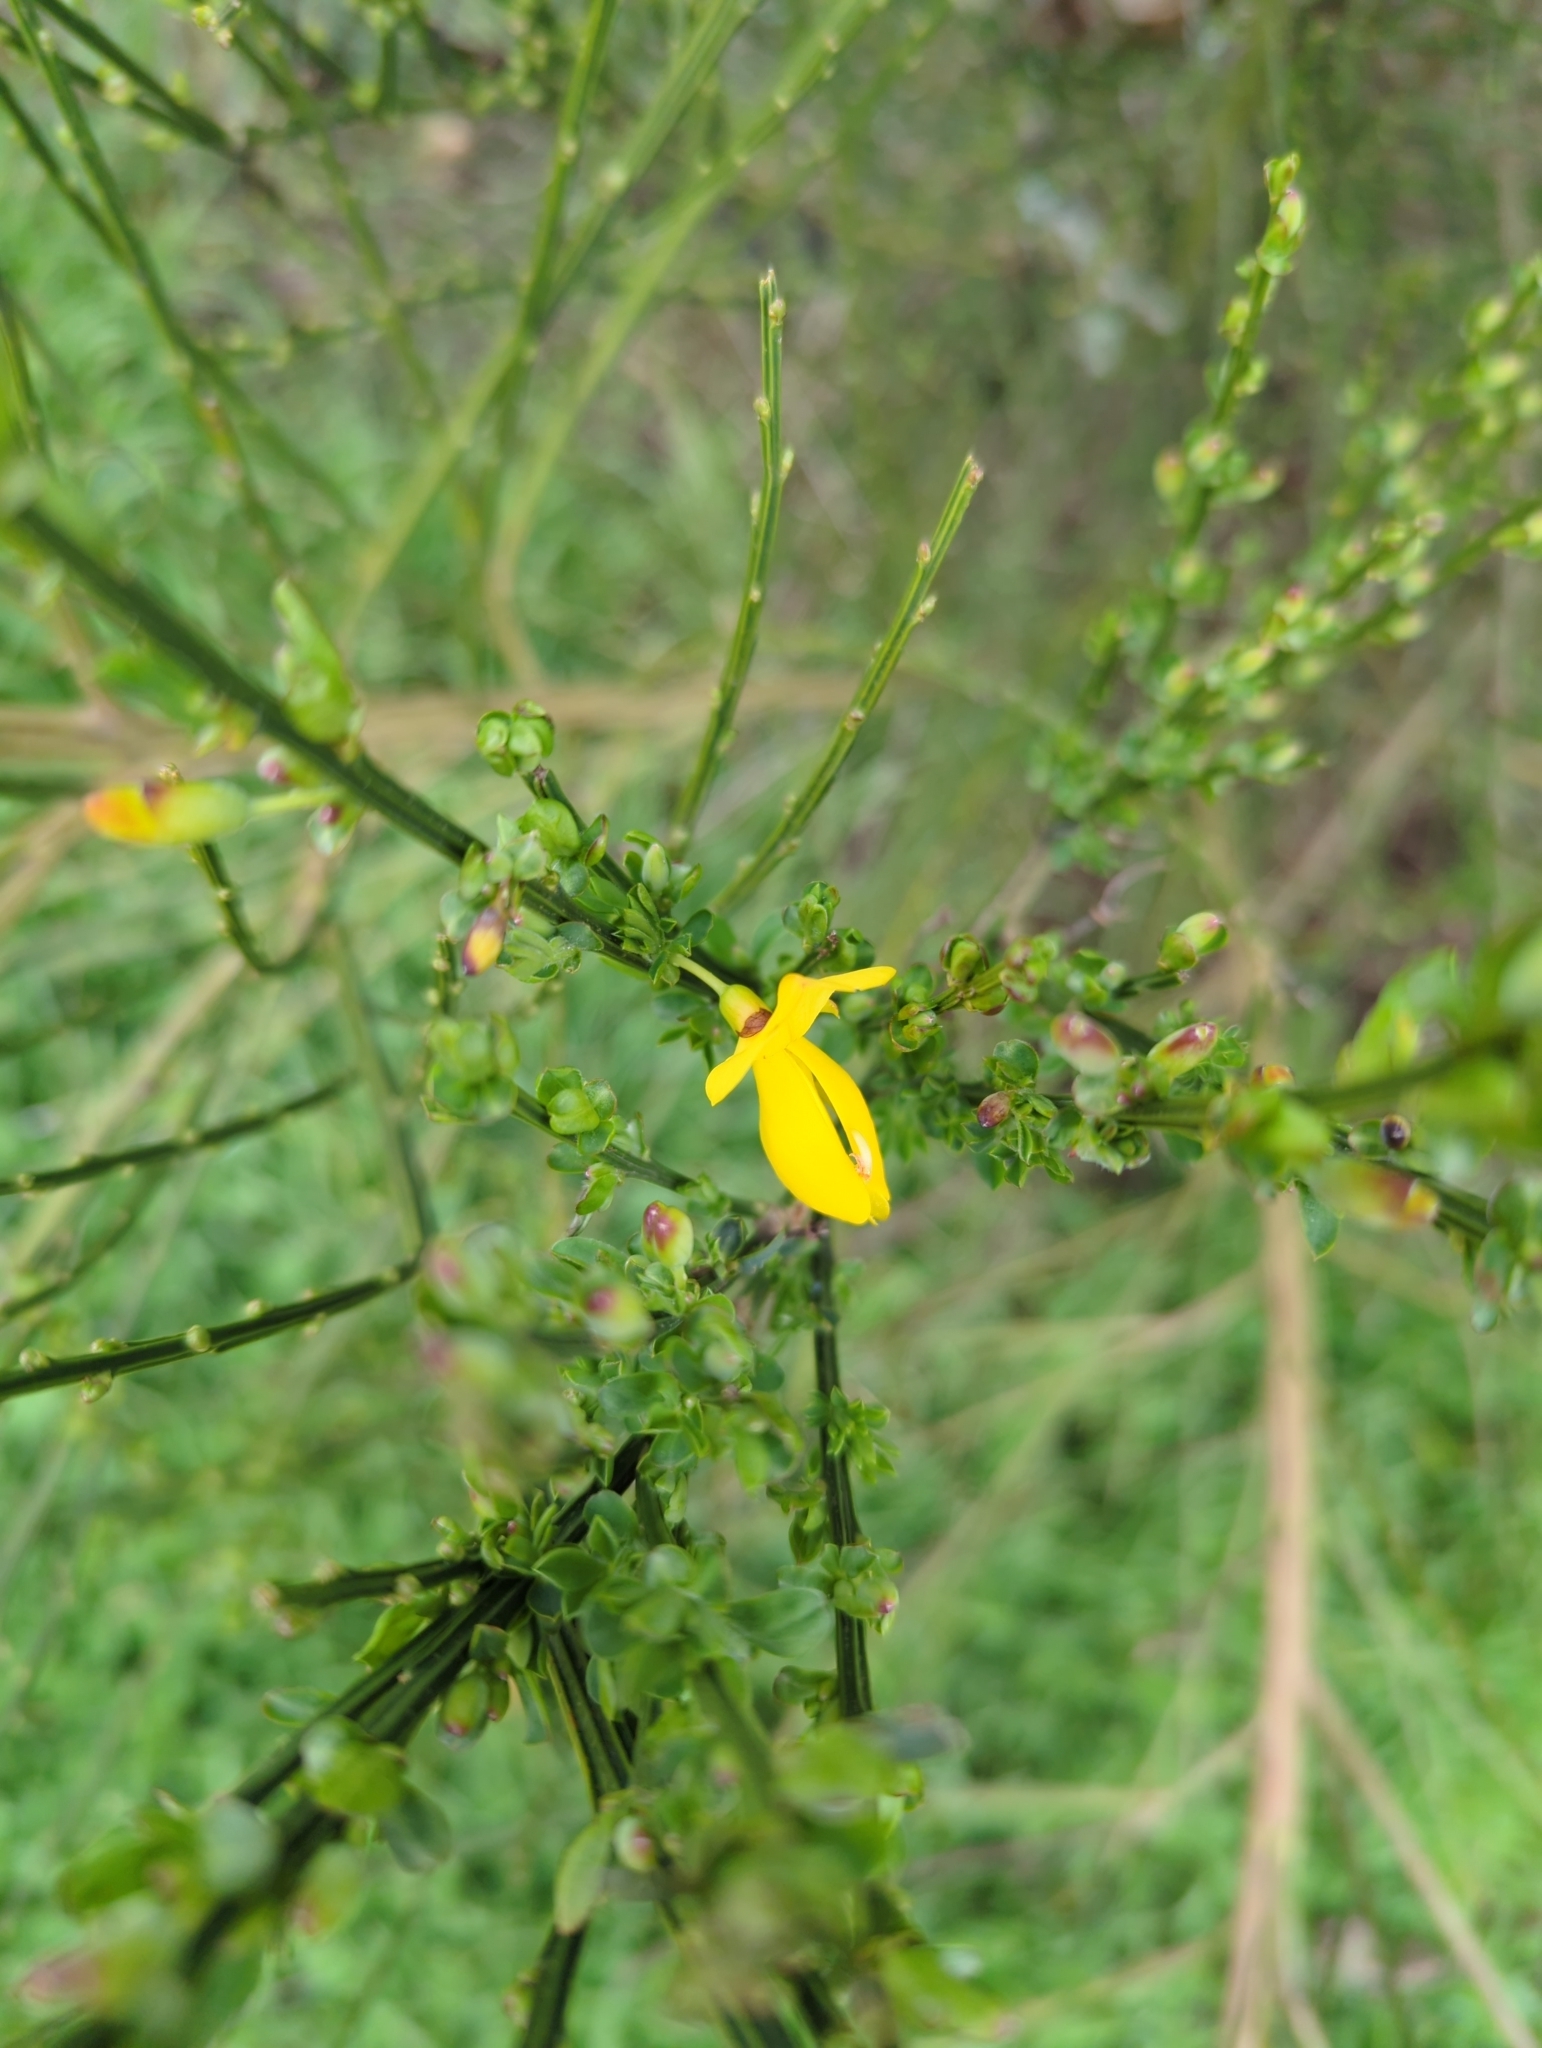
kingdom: Plantae
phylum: Tracheophyta
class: Magnoliopsida
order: Fabales
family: Fabaceae
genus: Cytisus
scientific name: Cytisus scoparius
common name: Scotch broom
